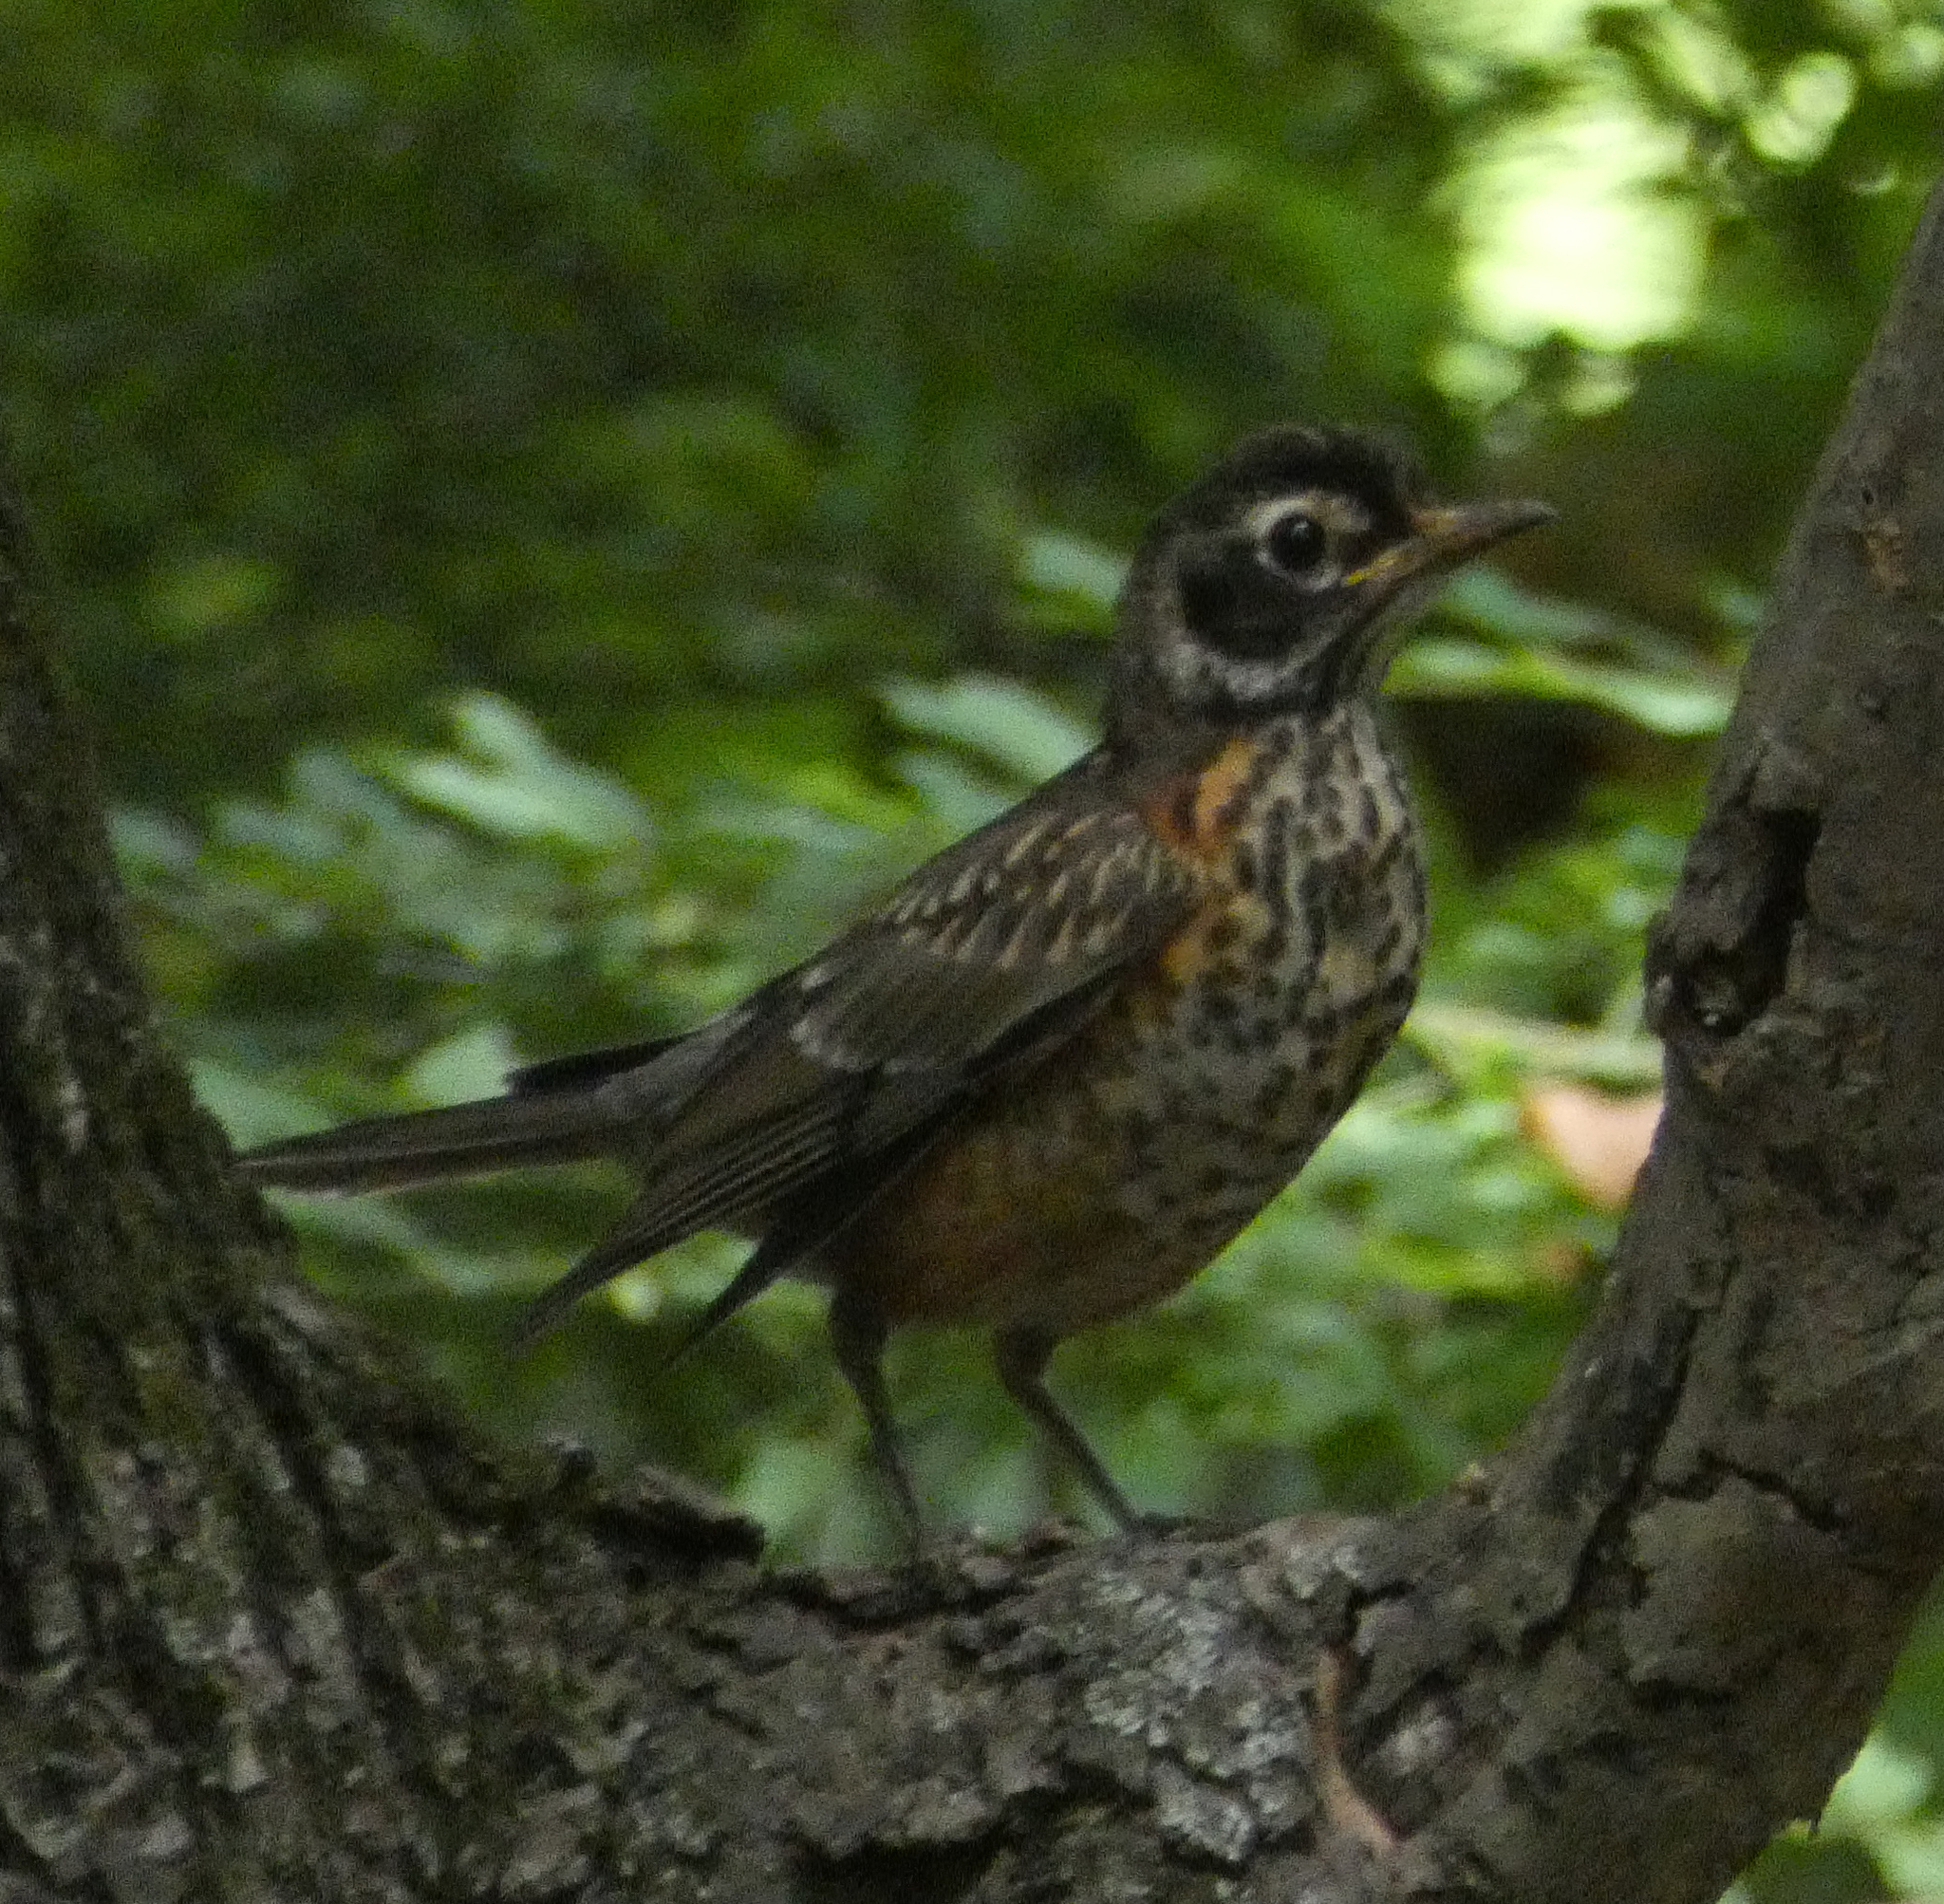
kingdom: Animalia
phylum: Chordata
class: Aves
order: Passeriformes
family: Turdidae
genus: Turdus
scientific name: Turdus migratorius
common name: American robin
